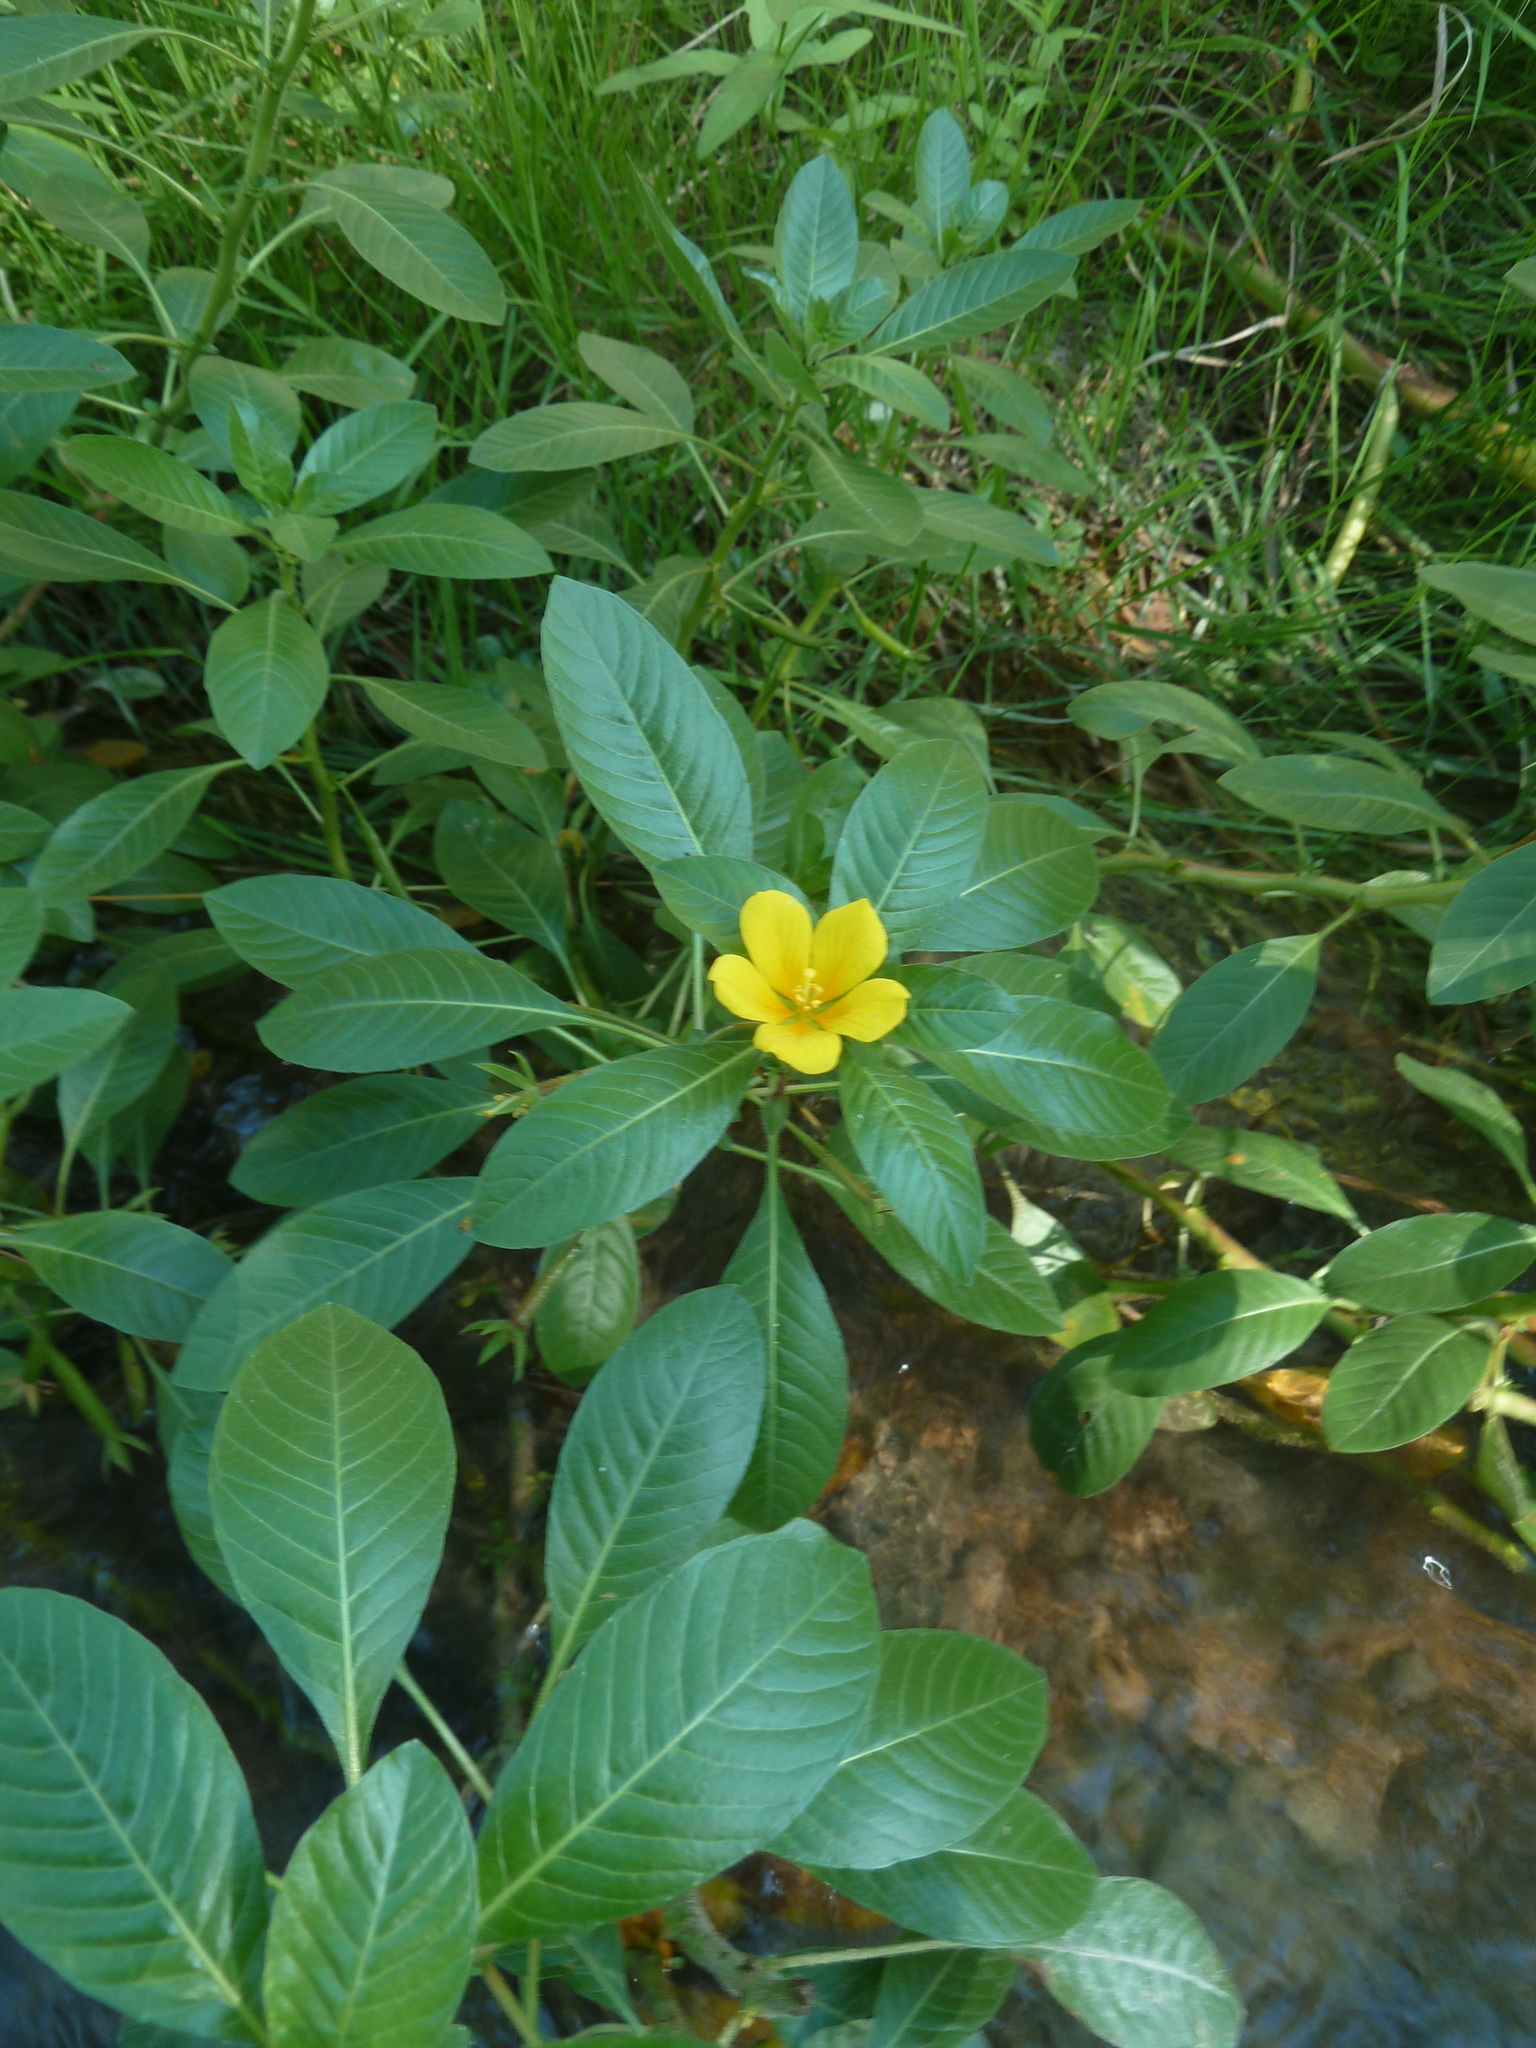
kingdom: Plantae
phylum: Tracheophyta
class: Magnoliopsida
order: Myrtales
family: Onagraceae
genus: Ludwigia
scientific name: Ludwigia peploides
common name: Floating primrose-willow
